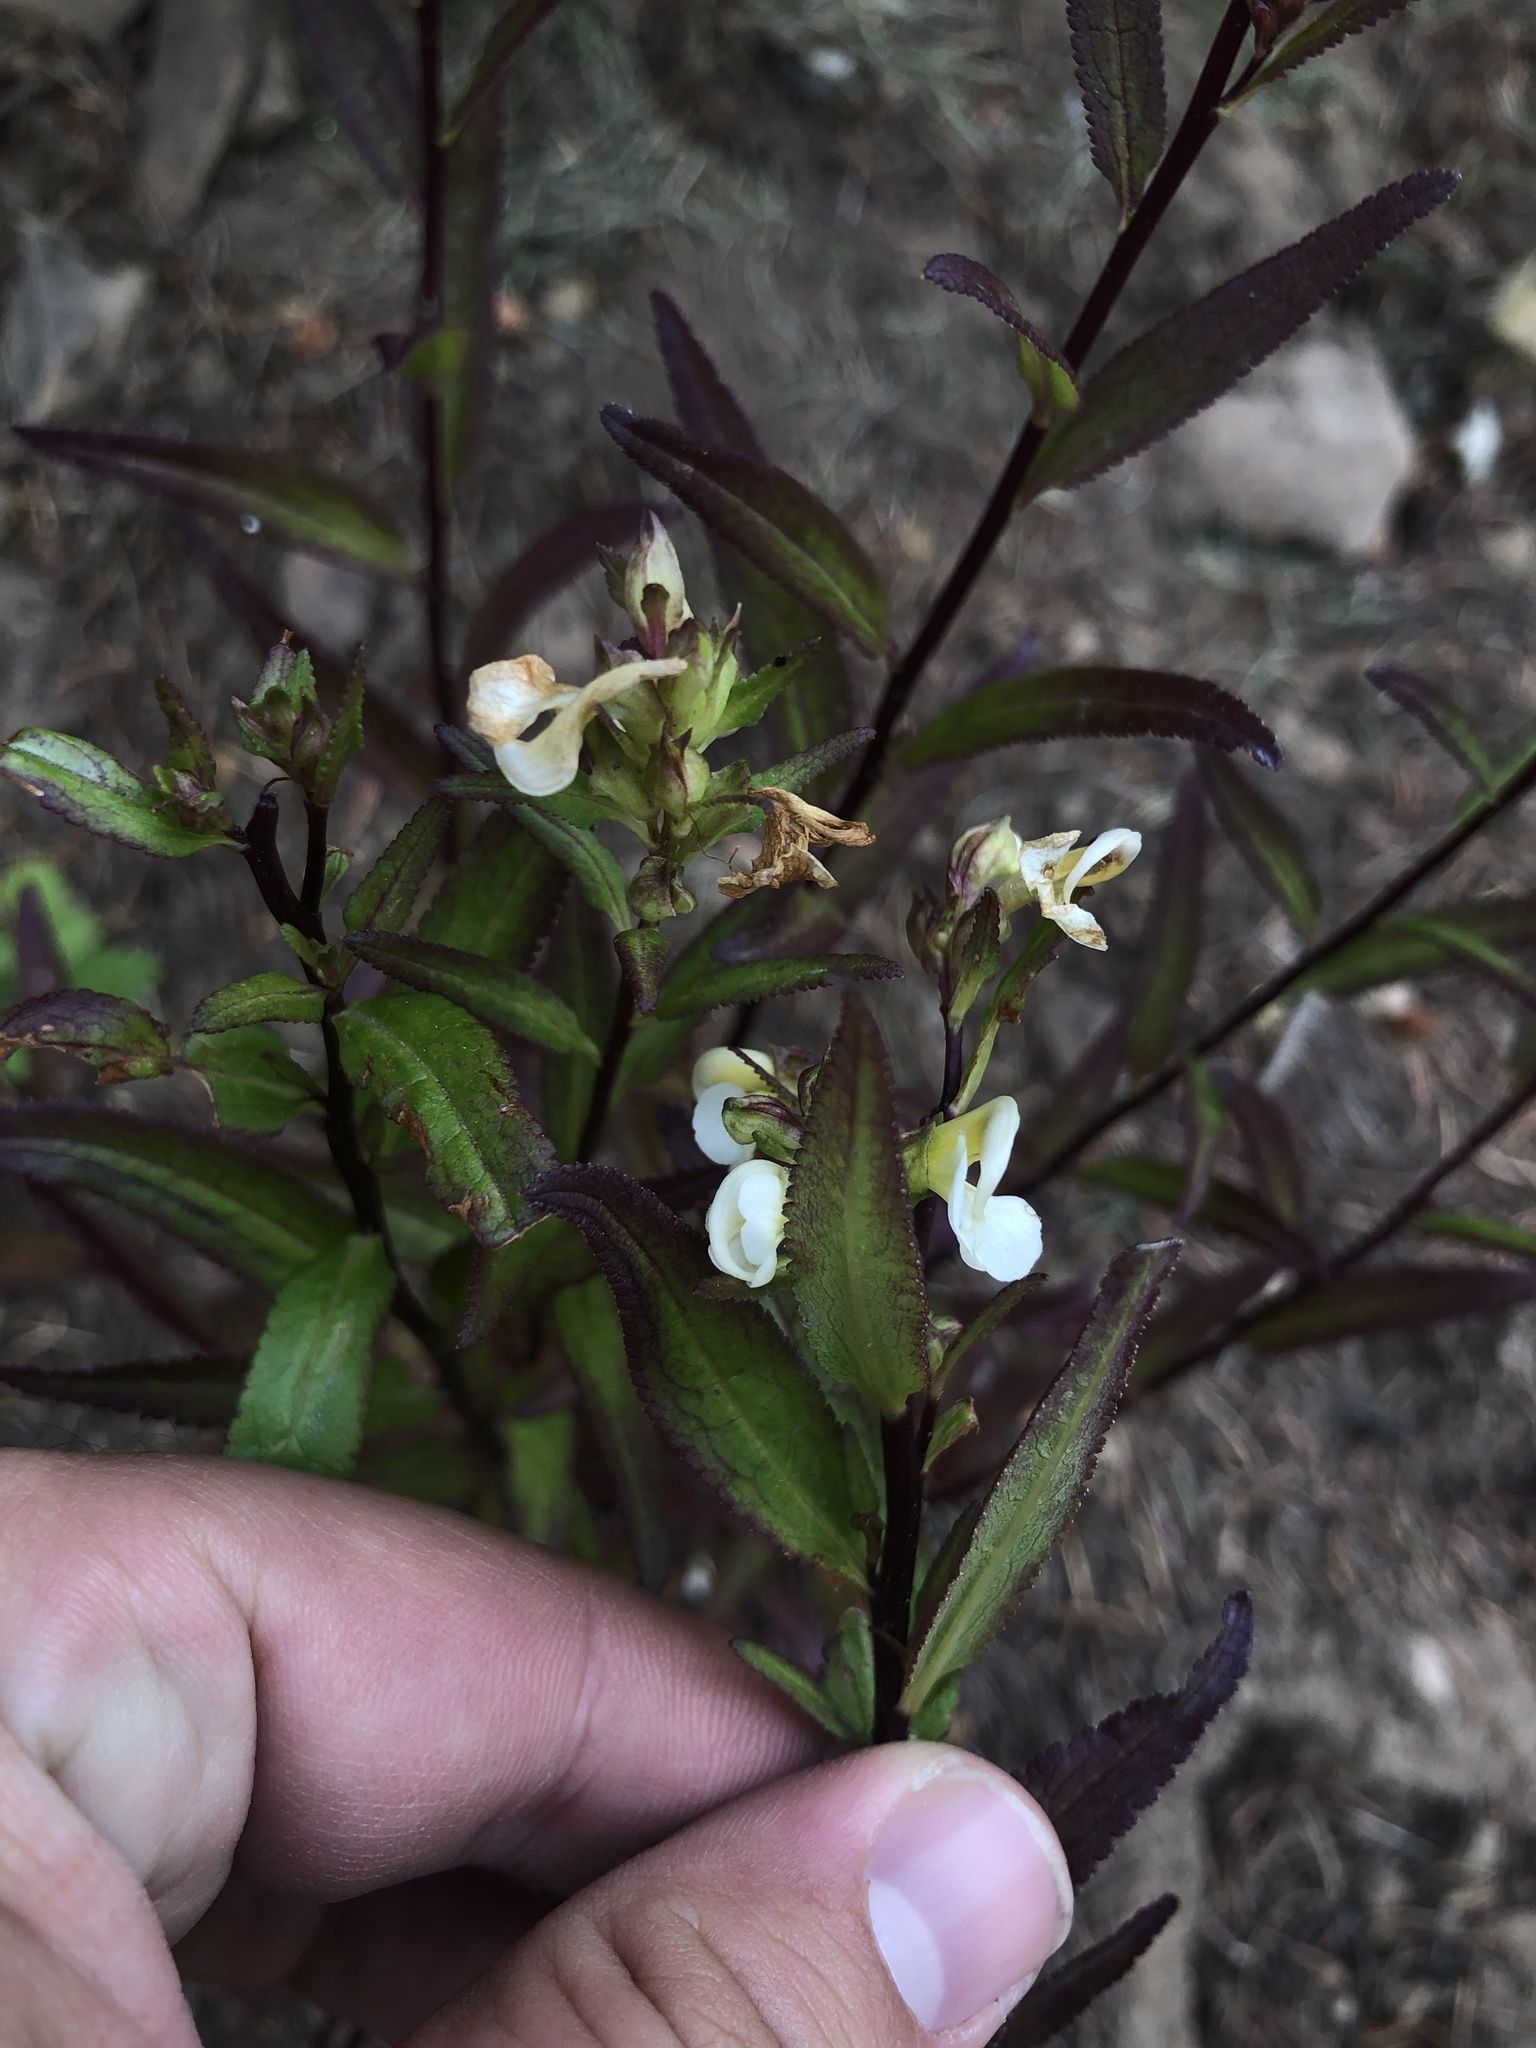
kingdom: Plantae
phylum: Tracheophyta
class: Magnoliopsida
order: Lamiales
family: Orobanchaceae
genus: Pedicularis
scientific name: Pedicularis racemosa
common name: Leafy lousewort
